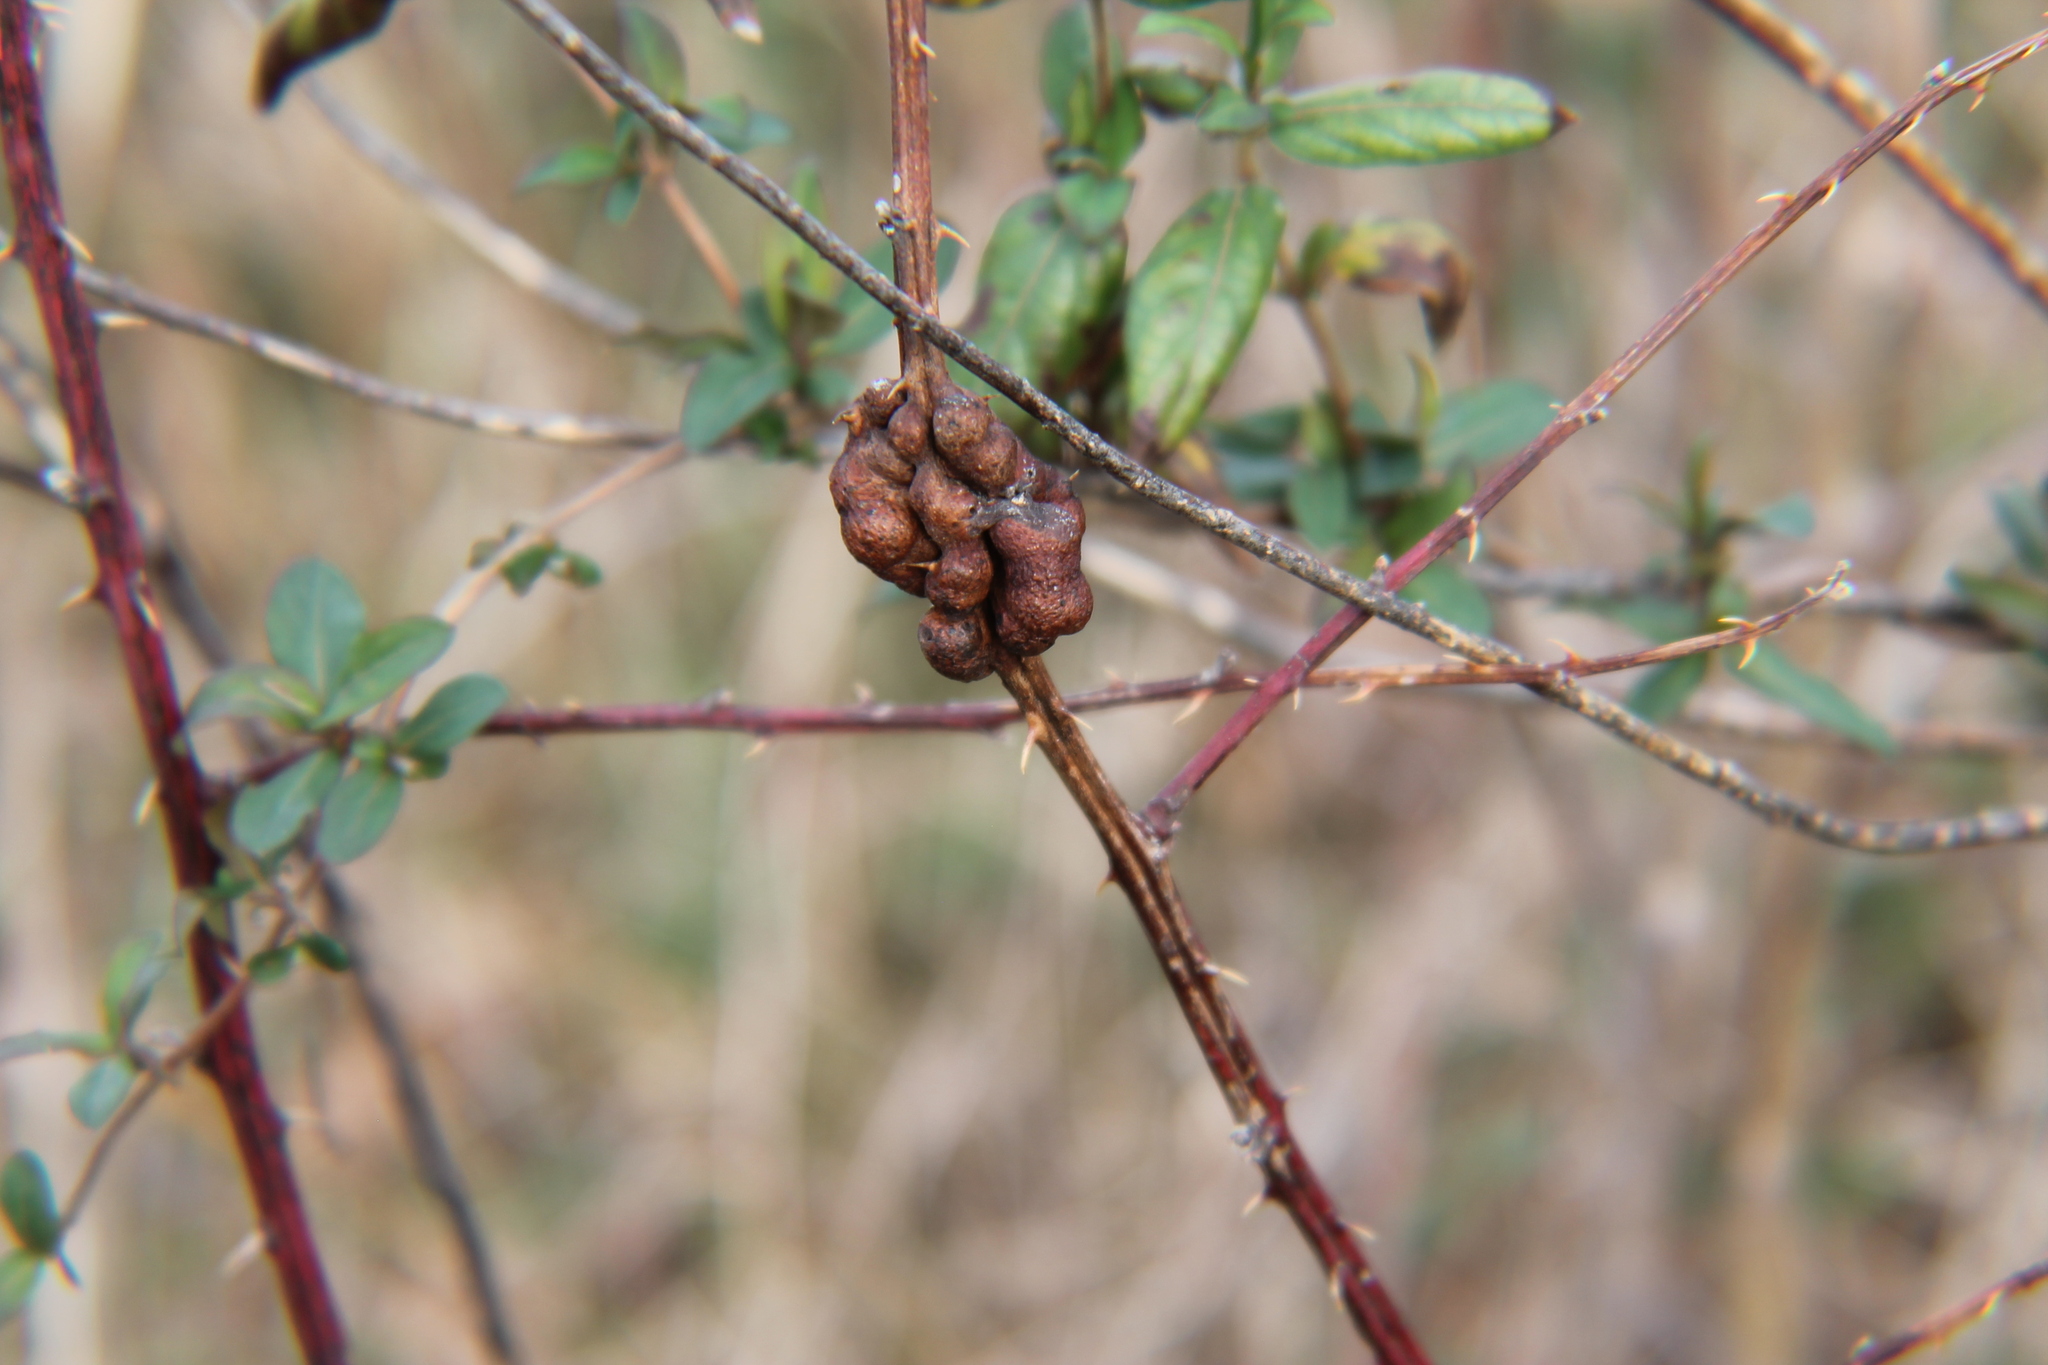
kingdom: Animalia
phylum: Arthropoda
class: Insecta
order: Hymenoptera
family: Cynipidae
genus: Diastrophus
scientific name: Diastrophus
